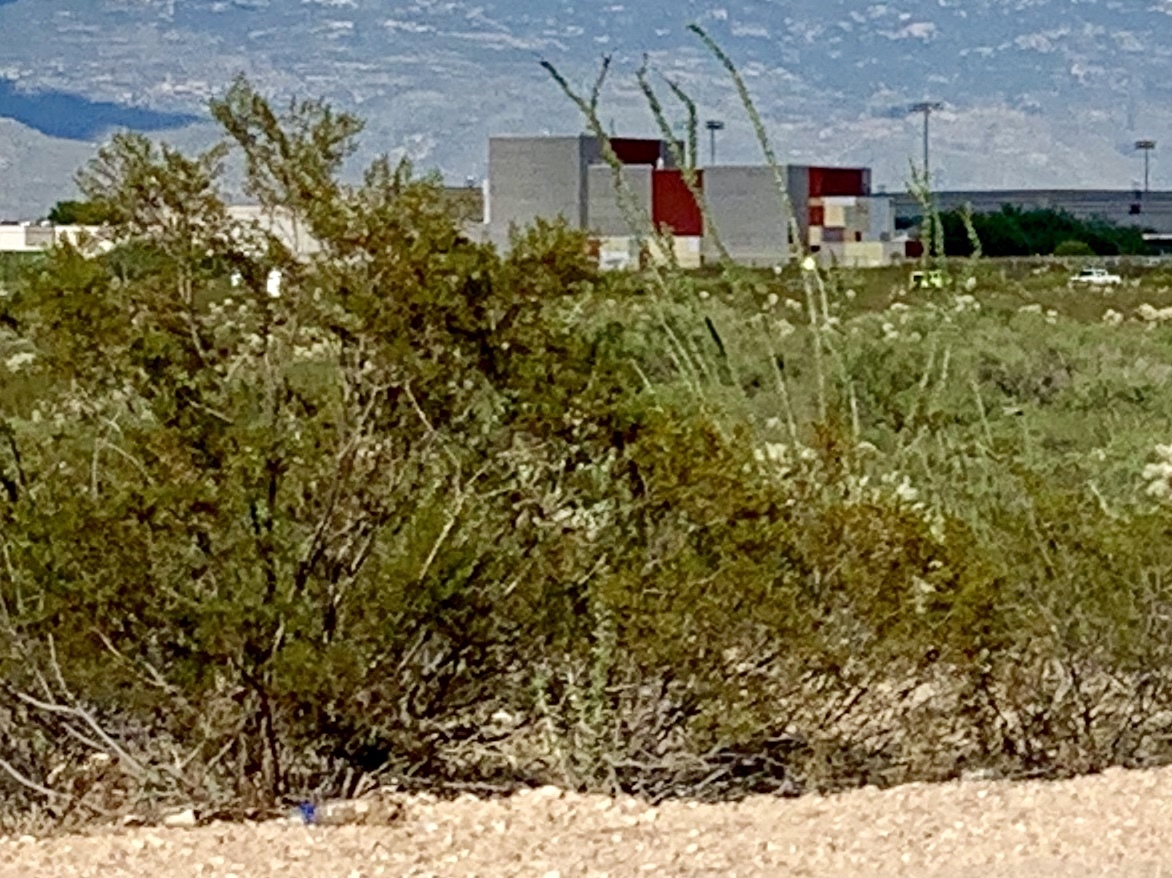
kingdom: Plantae
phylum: Tracheophyta
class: Magnoliopsida
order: Zygophyllales
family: Zygophyllaceae
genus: Larrea
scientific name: Larrea tridentata
